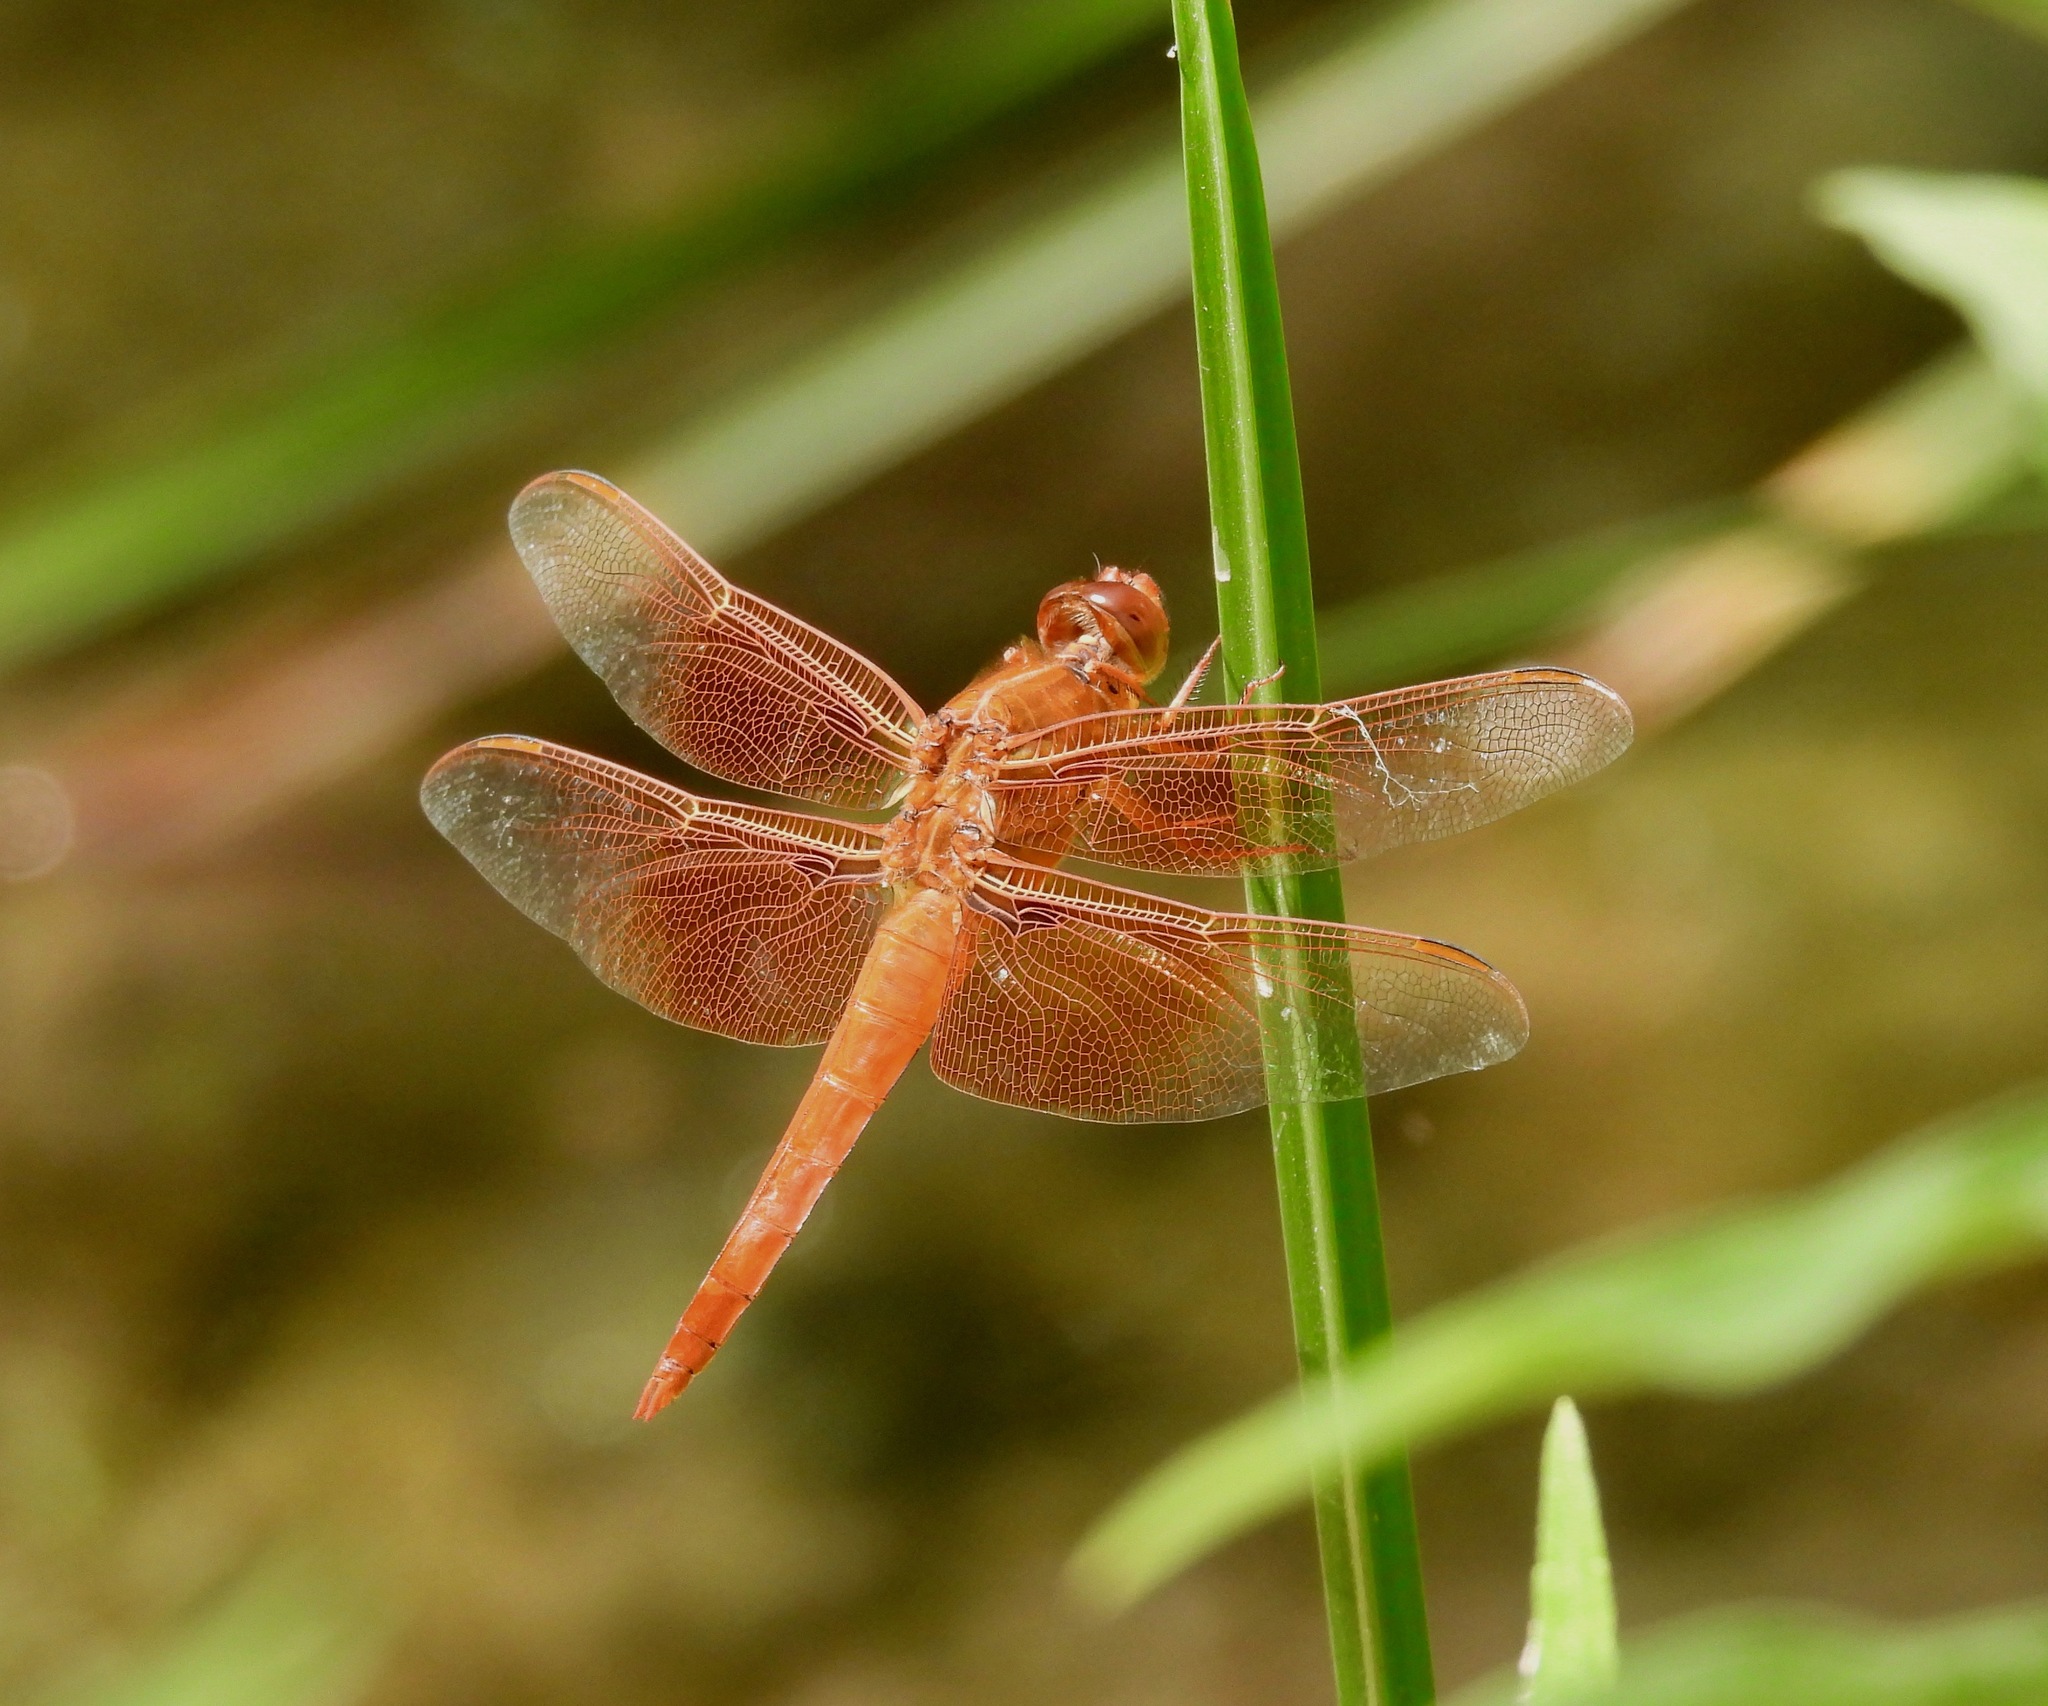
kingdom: Animalia
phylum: Arthropoda
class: Insecta
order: Odonata
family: Libellulidae
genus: Libellula
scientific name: Libellula saturata
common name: Flame skimmer
